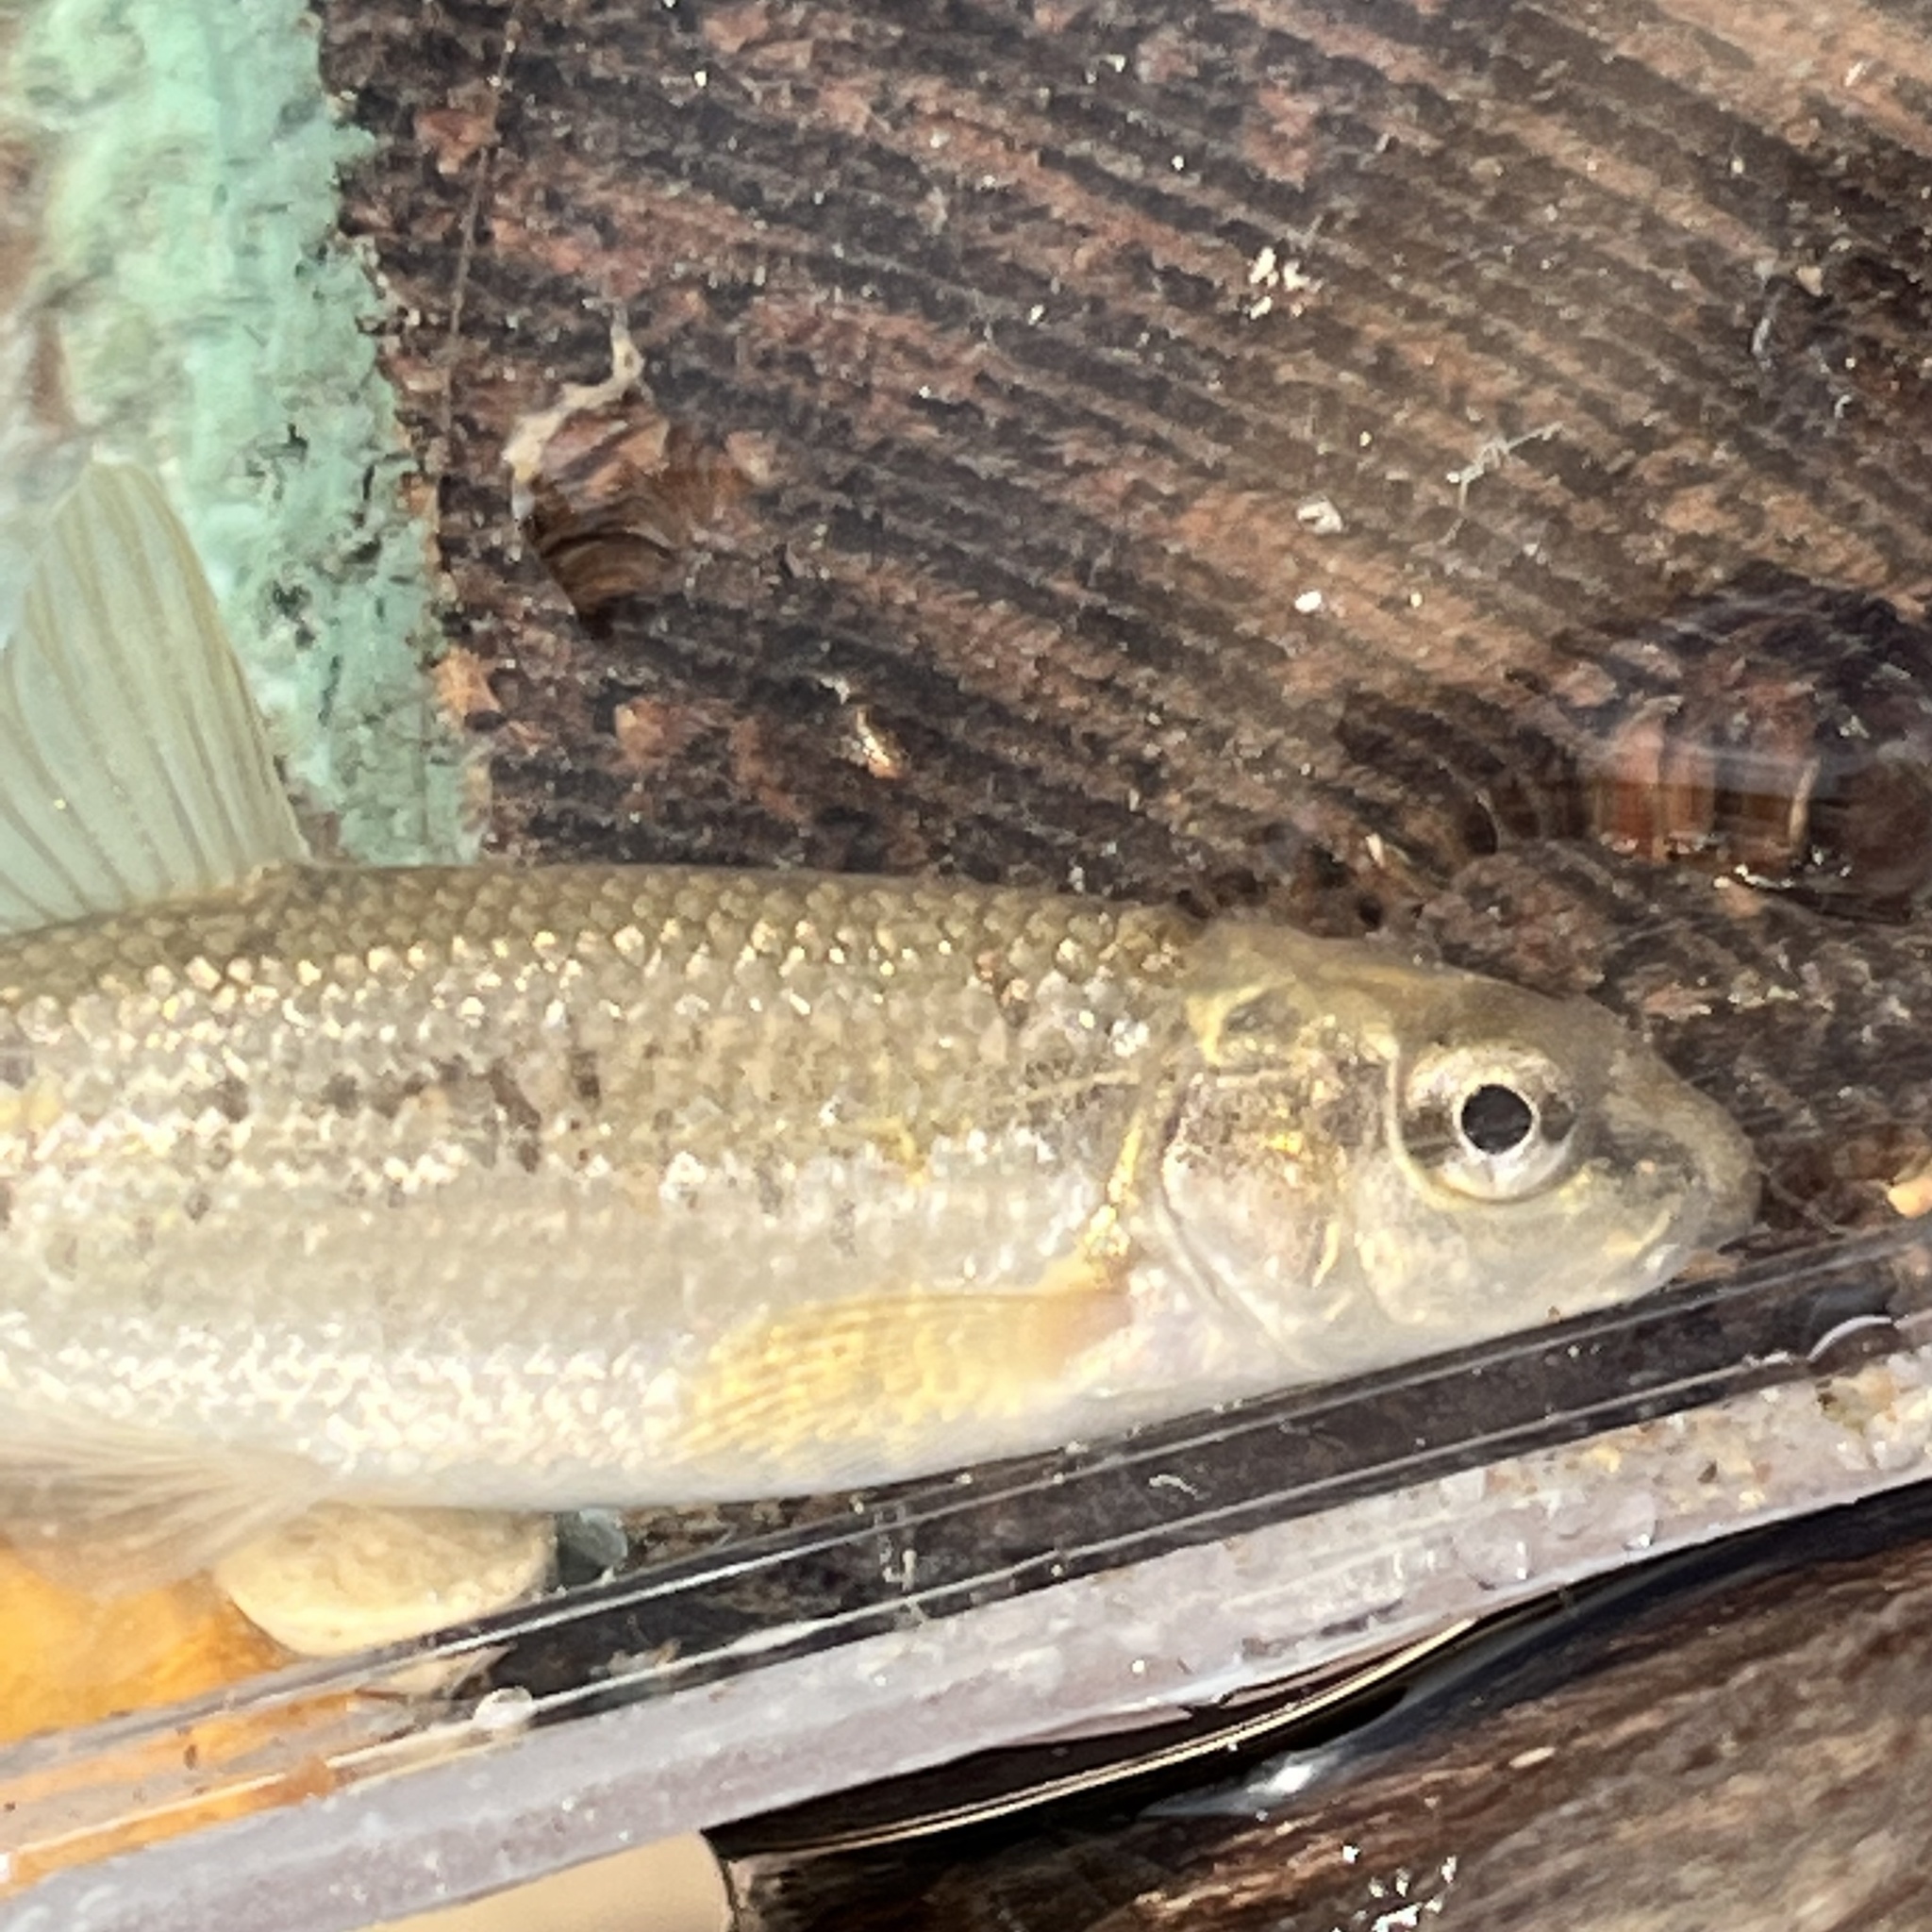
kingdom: Animalia
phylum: Chordata
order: Cypriniformes
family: Cyprinidae
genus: Campostoma
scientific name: Campostoma anomalum
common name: Central stoneroller
